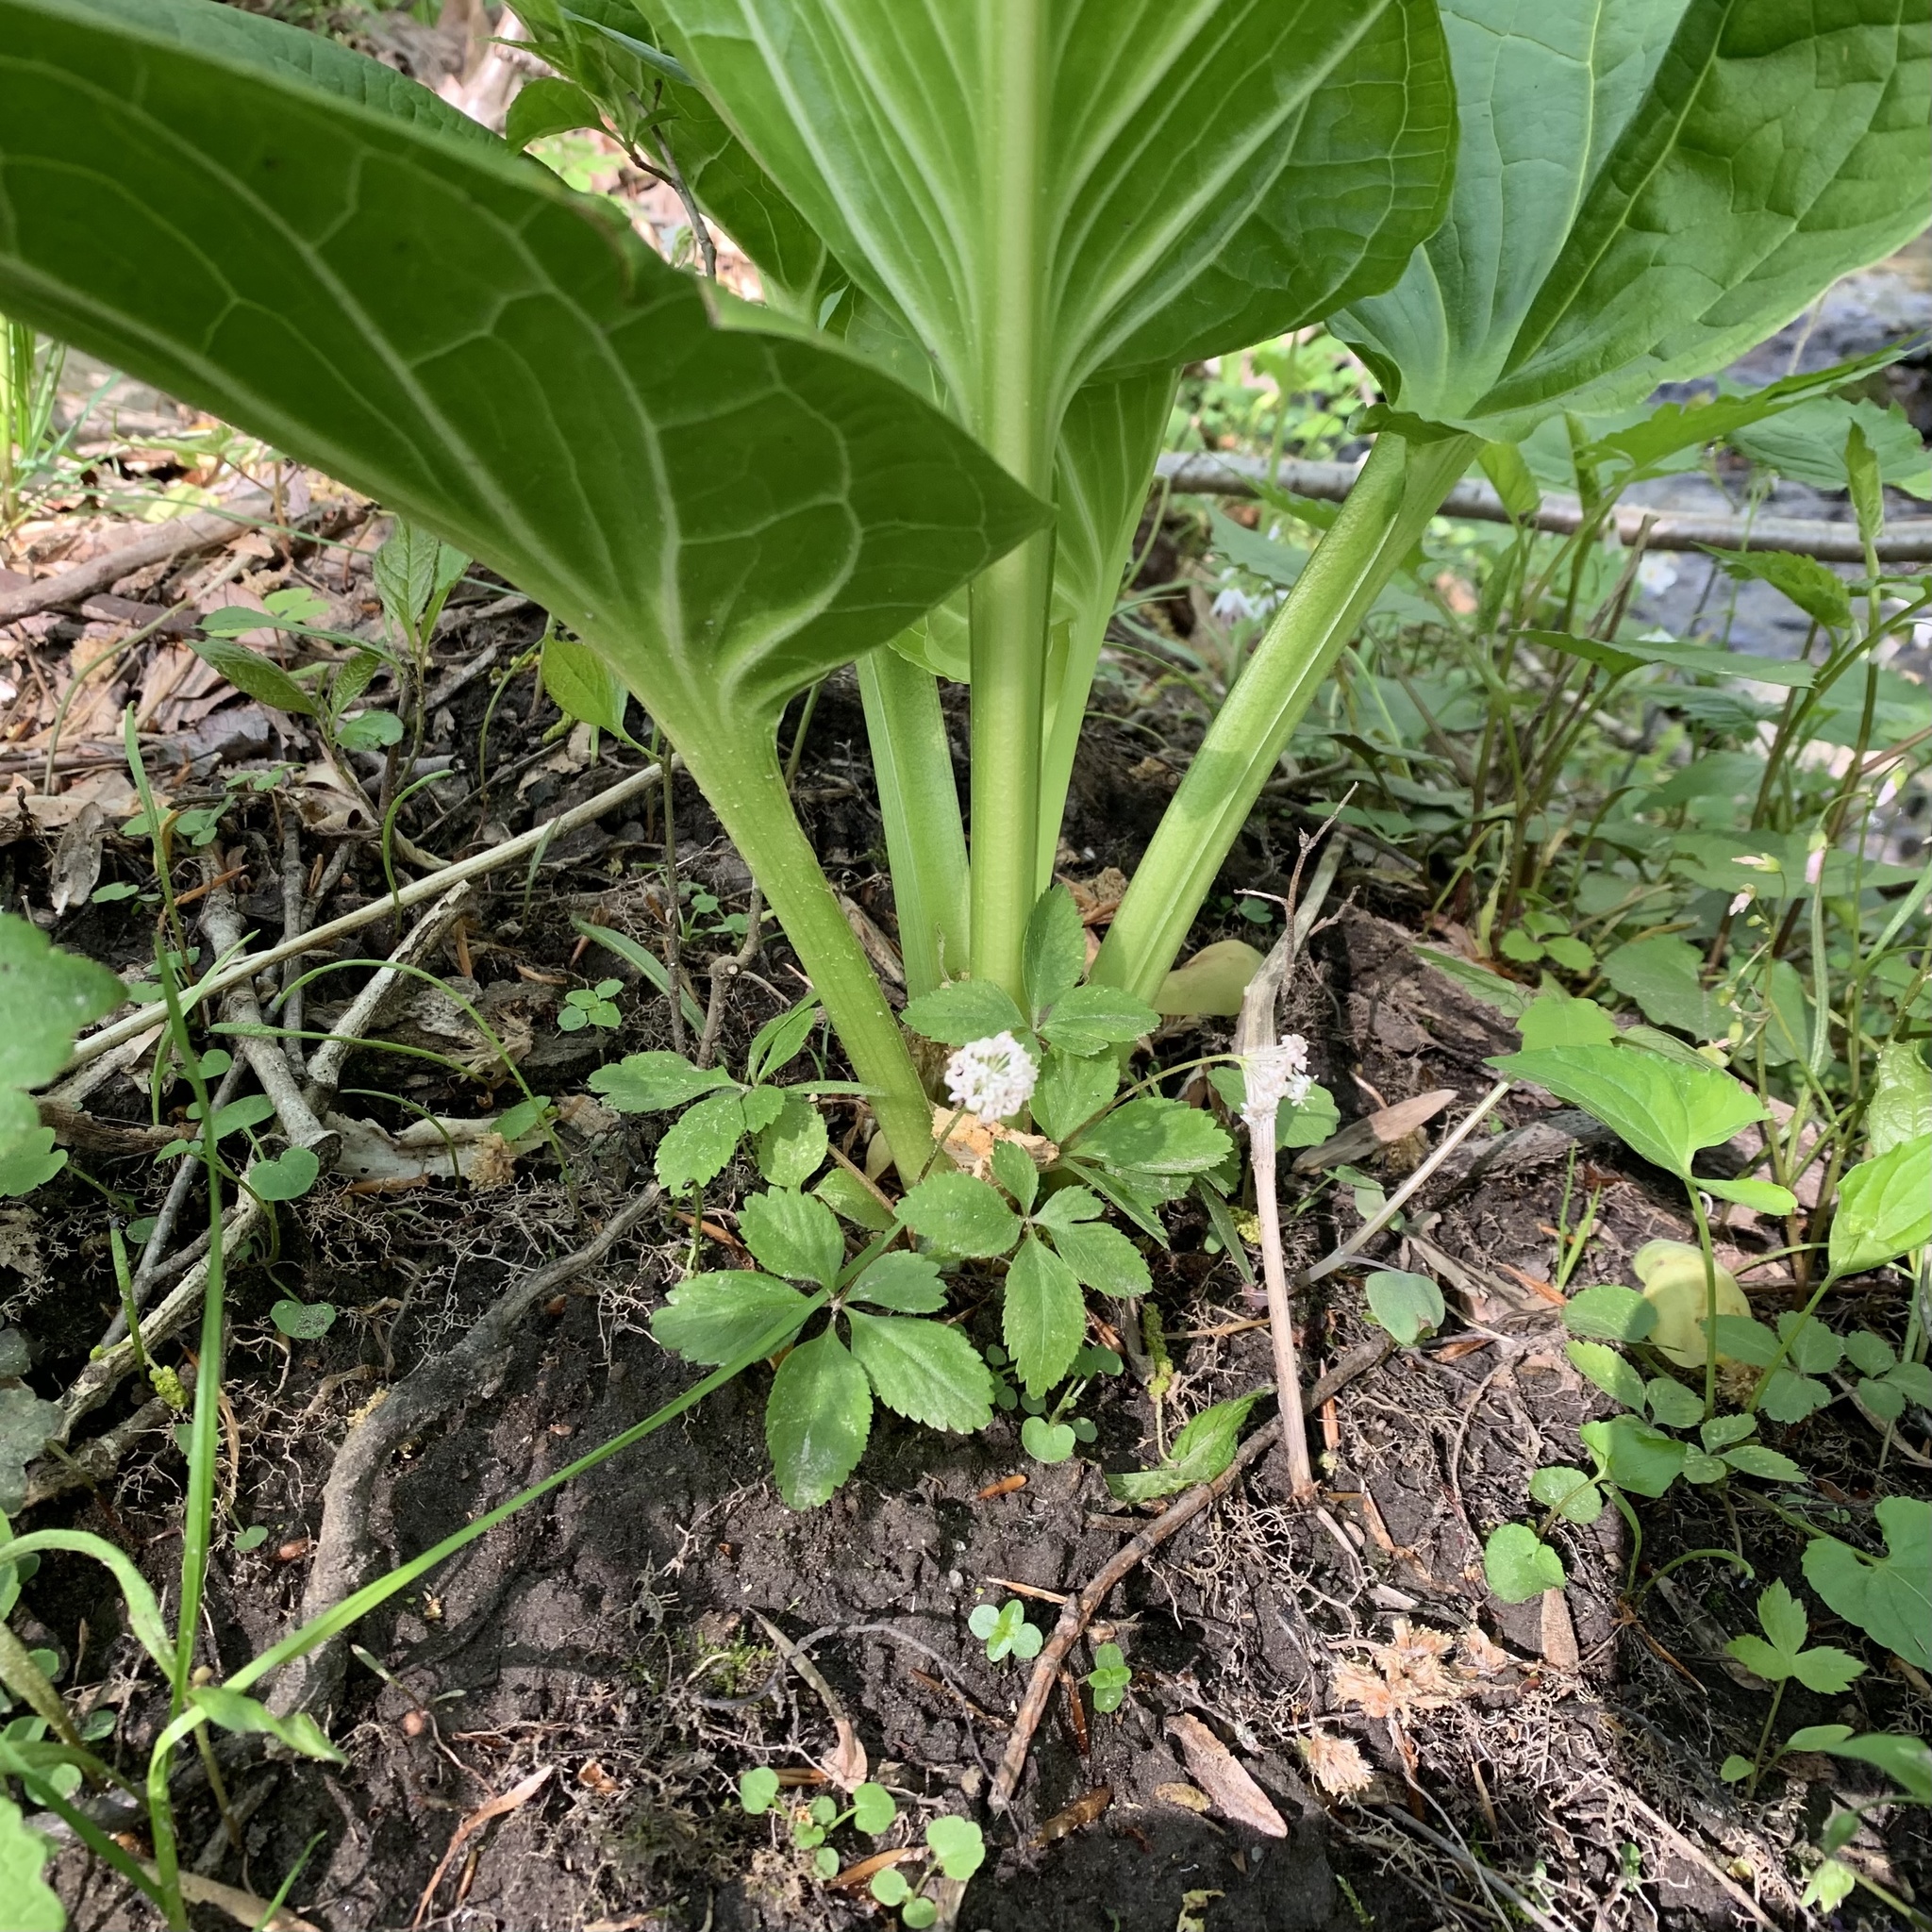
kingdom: Plantae
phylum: Tracheophyta
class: Magnoliopsida
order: Apiales
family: Araliaceae
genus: Panax
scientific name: Panax trifolius
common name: Dwarf ginseng
